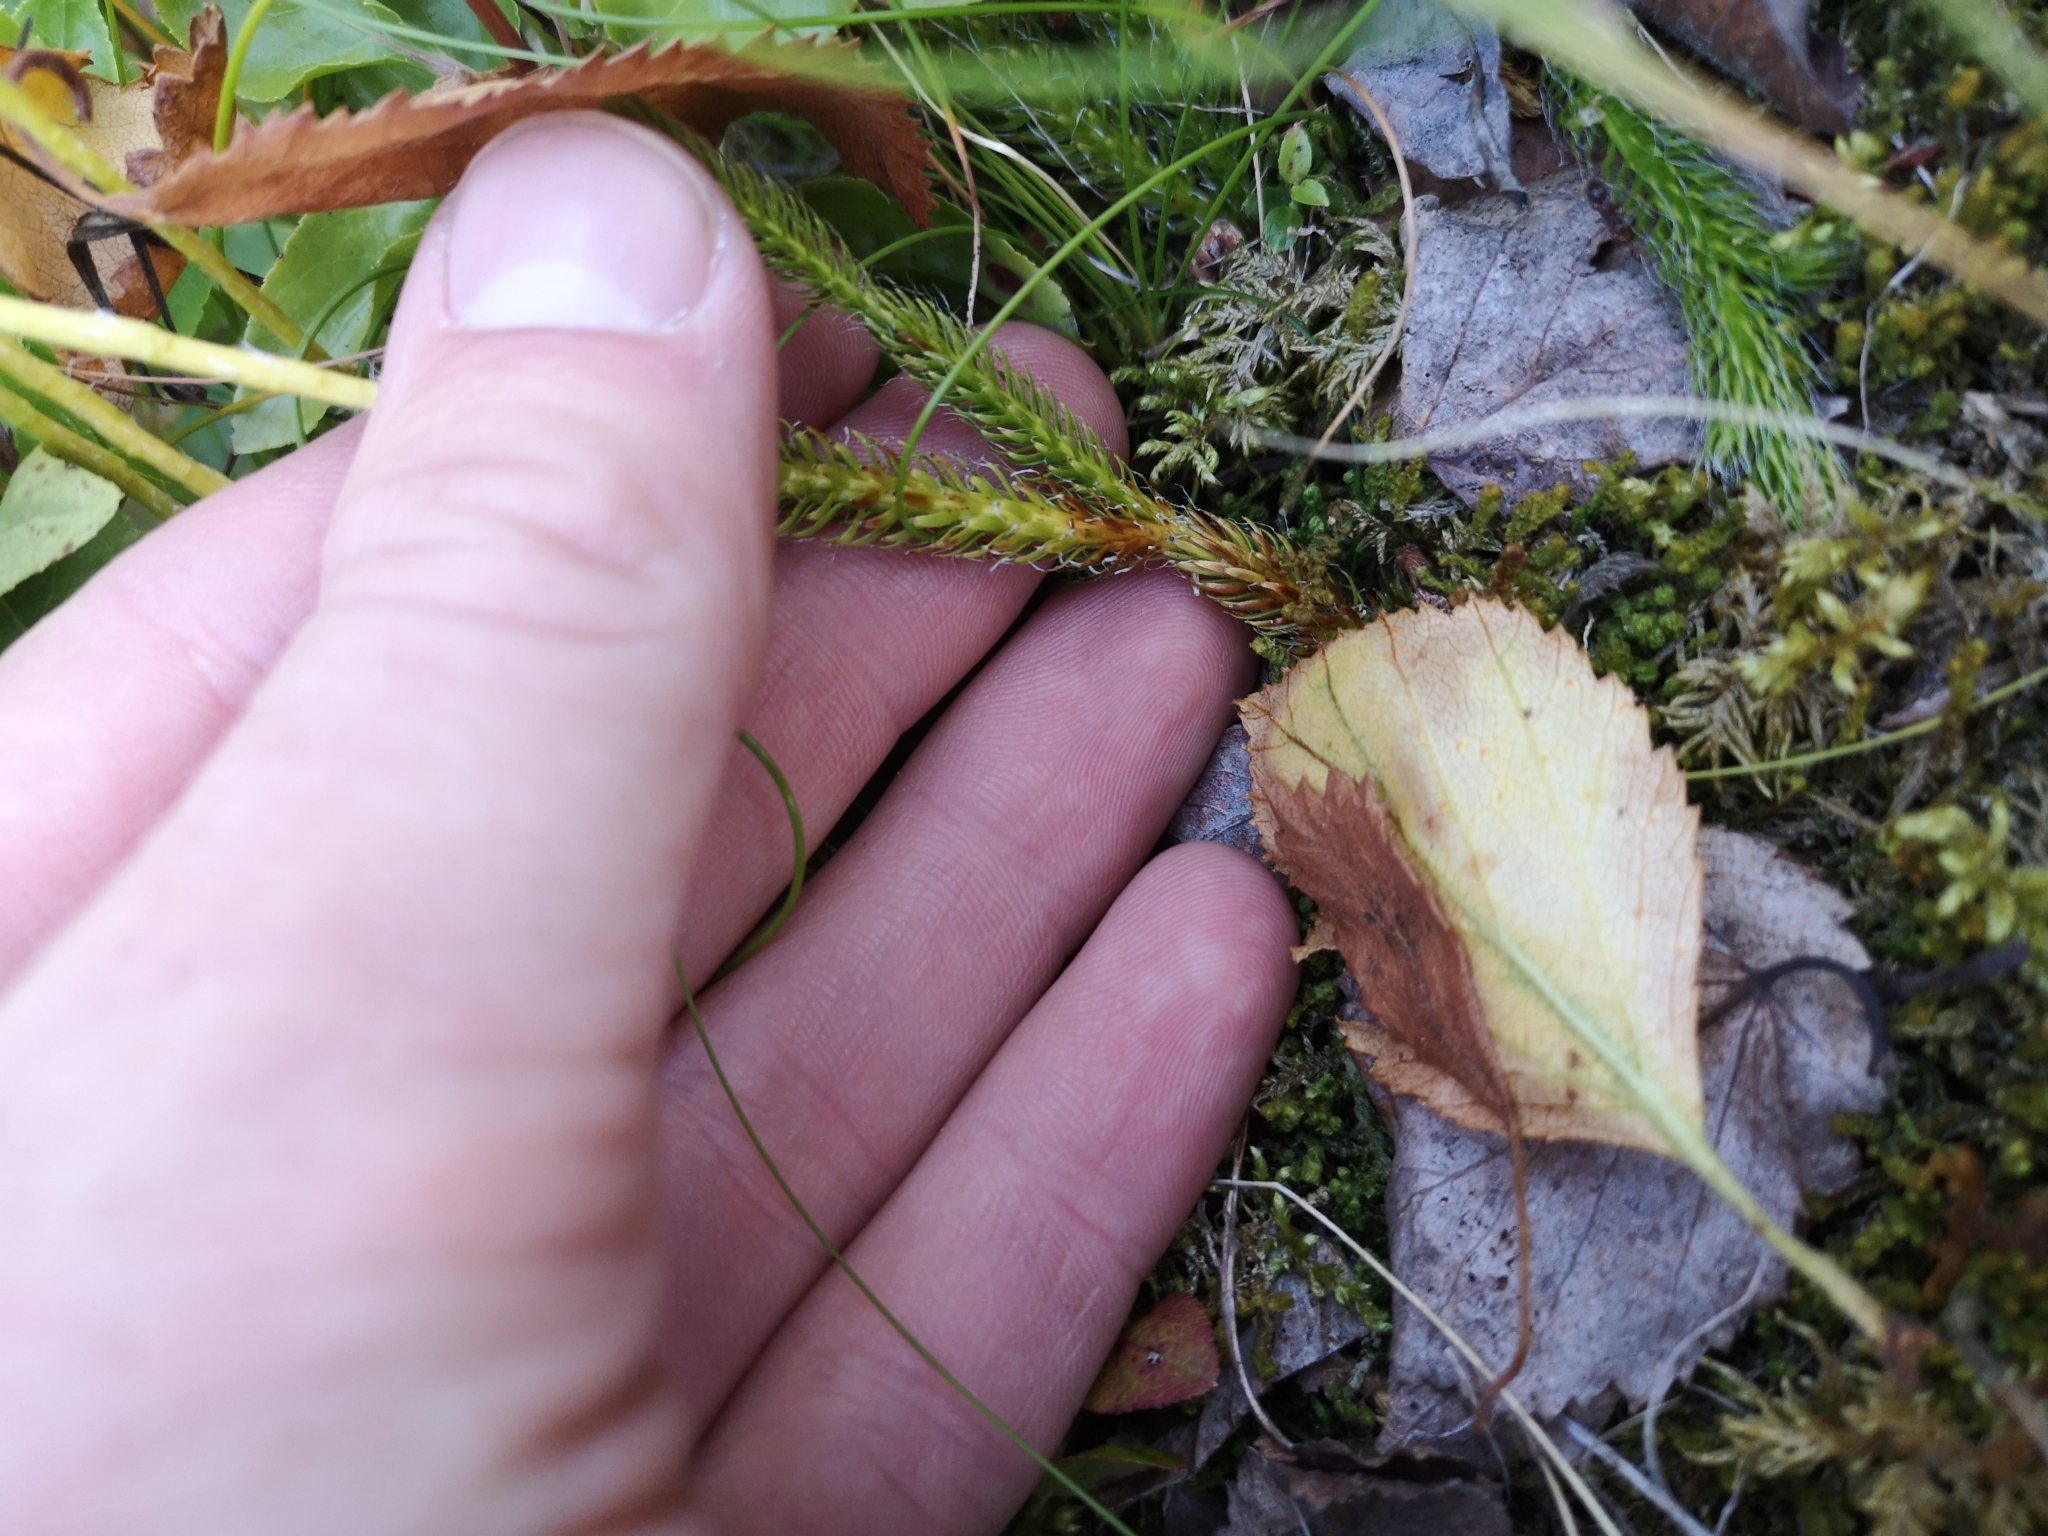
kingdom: Plantae
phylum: Tracheophyta
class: Lycopodiopsida
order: Lycopodiales
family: Lycopodiaceae
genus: Lycopodium
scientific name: Lycopodium clavatum
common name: Stag's-horn clubmoss
